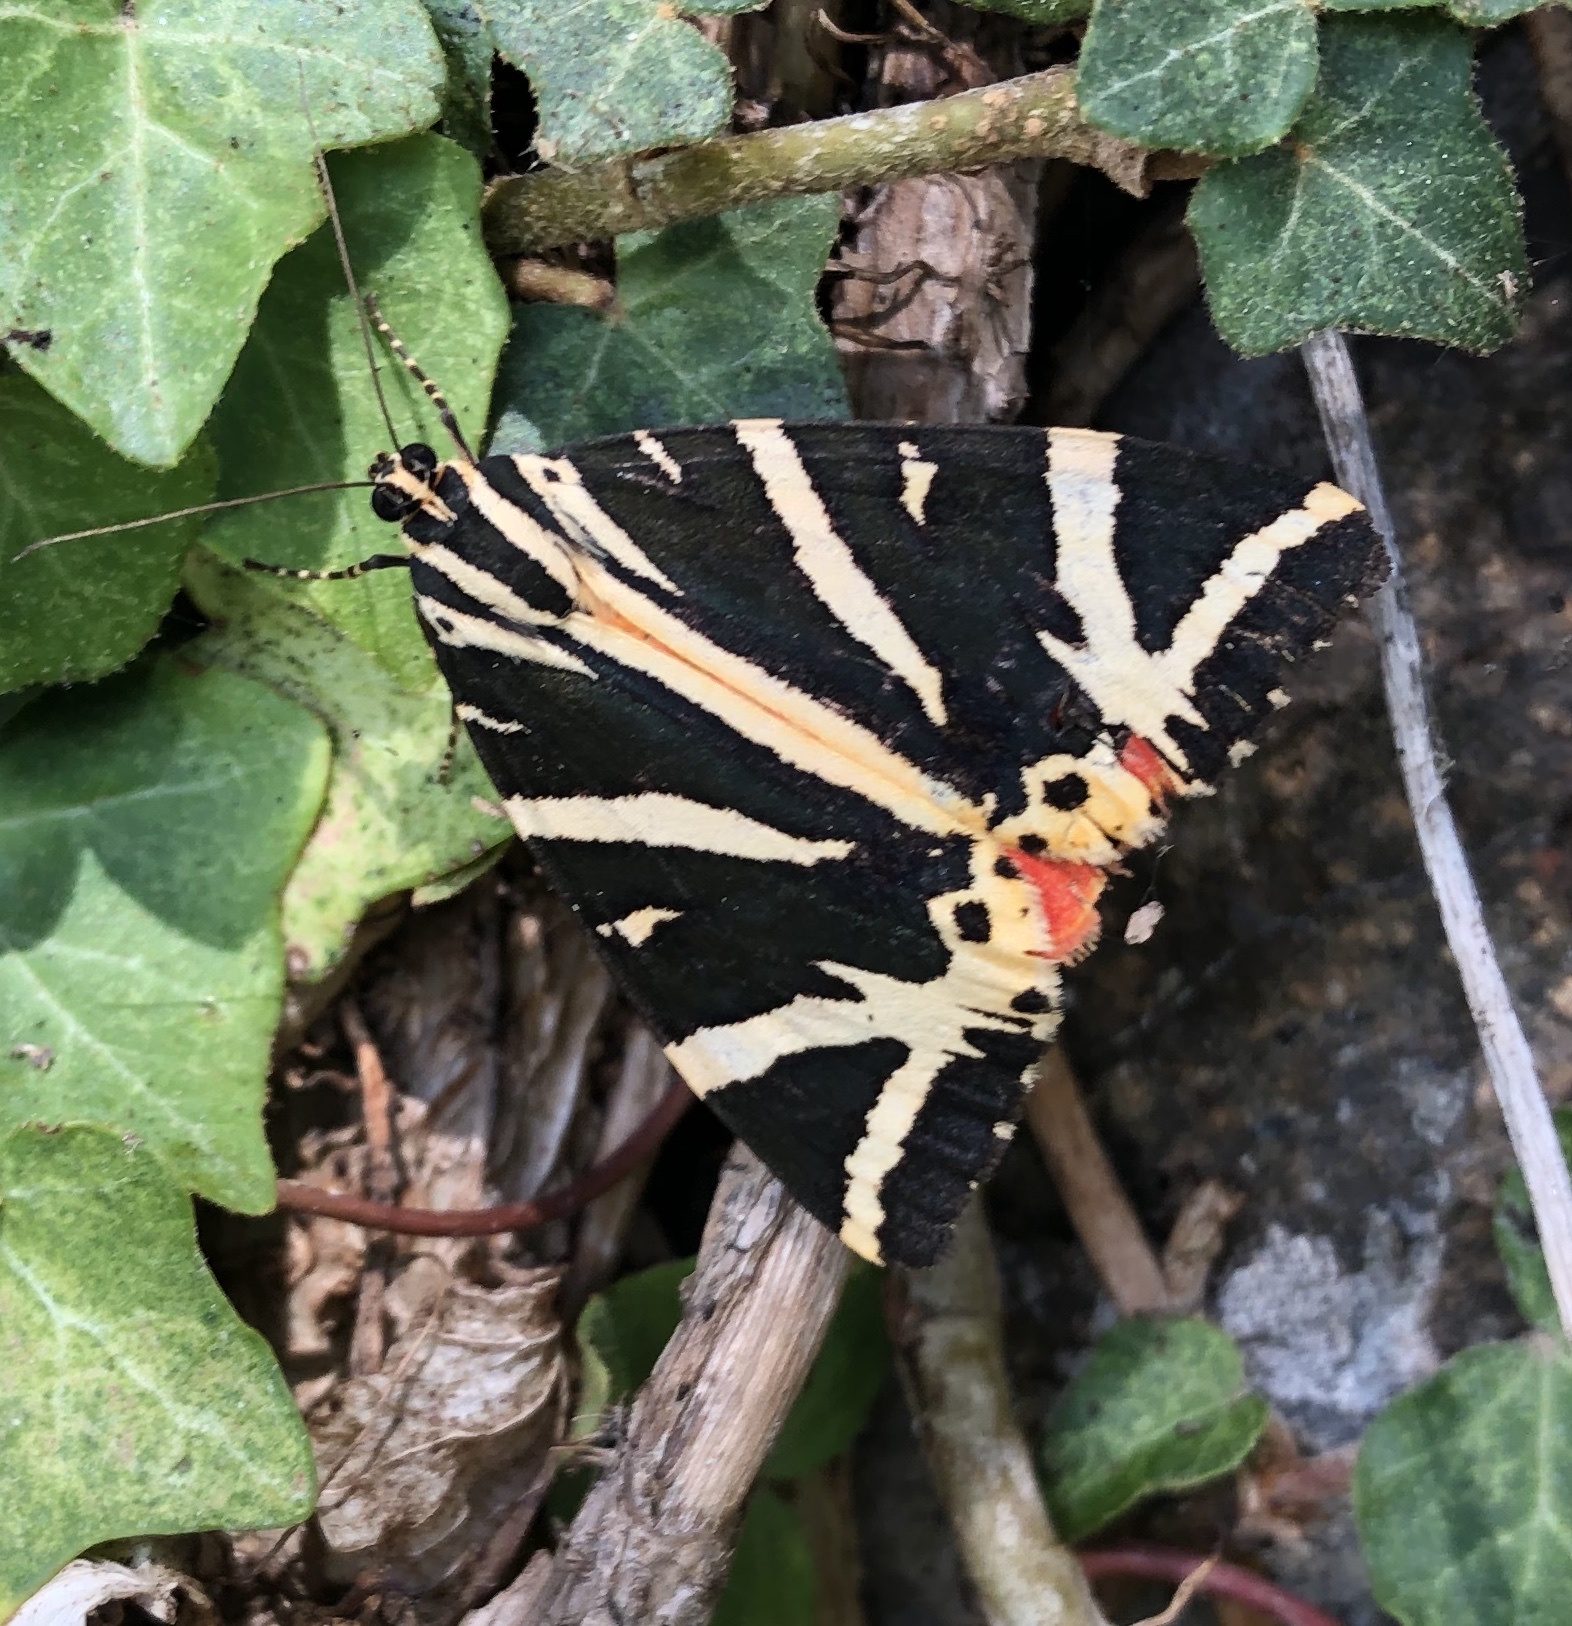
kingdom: Animalia
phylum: Arthropoda
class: Insecta
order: Lepidoptera
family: Erebidae
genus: Euplagia
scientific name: Euplagia quadripunctaria
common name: Jersey tiger
